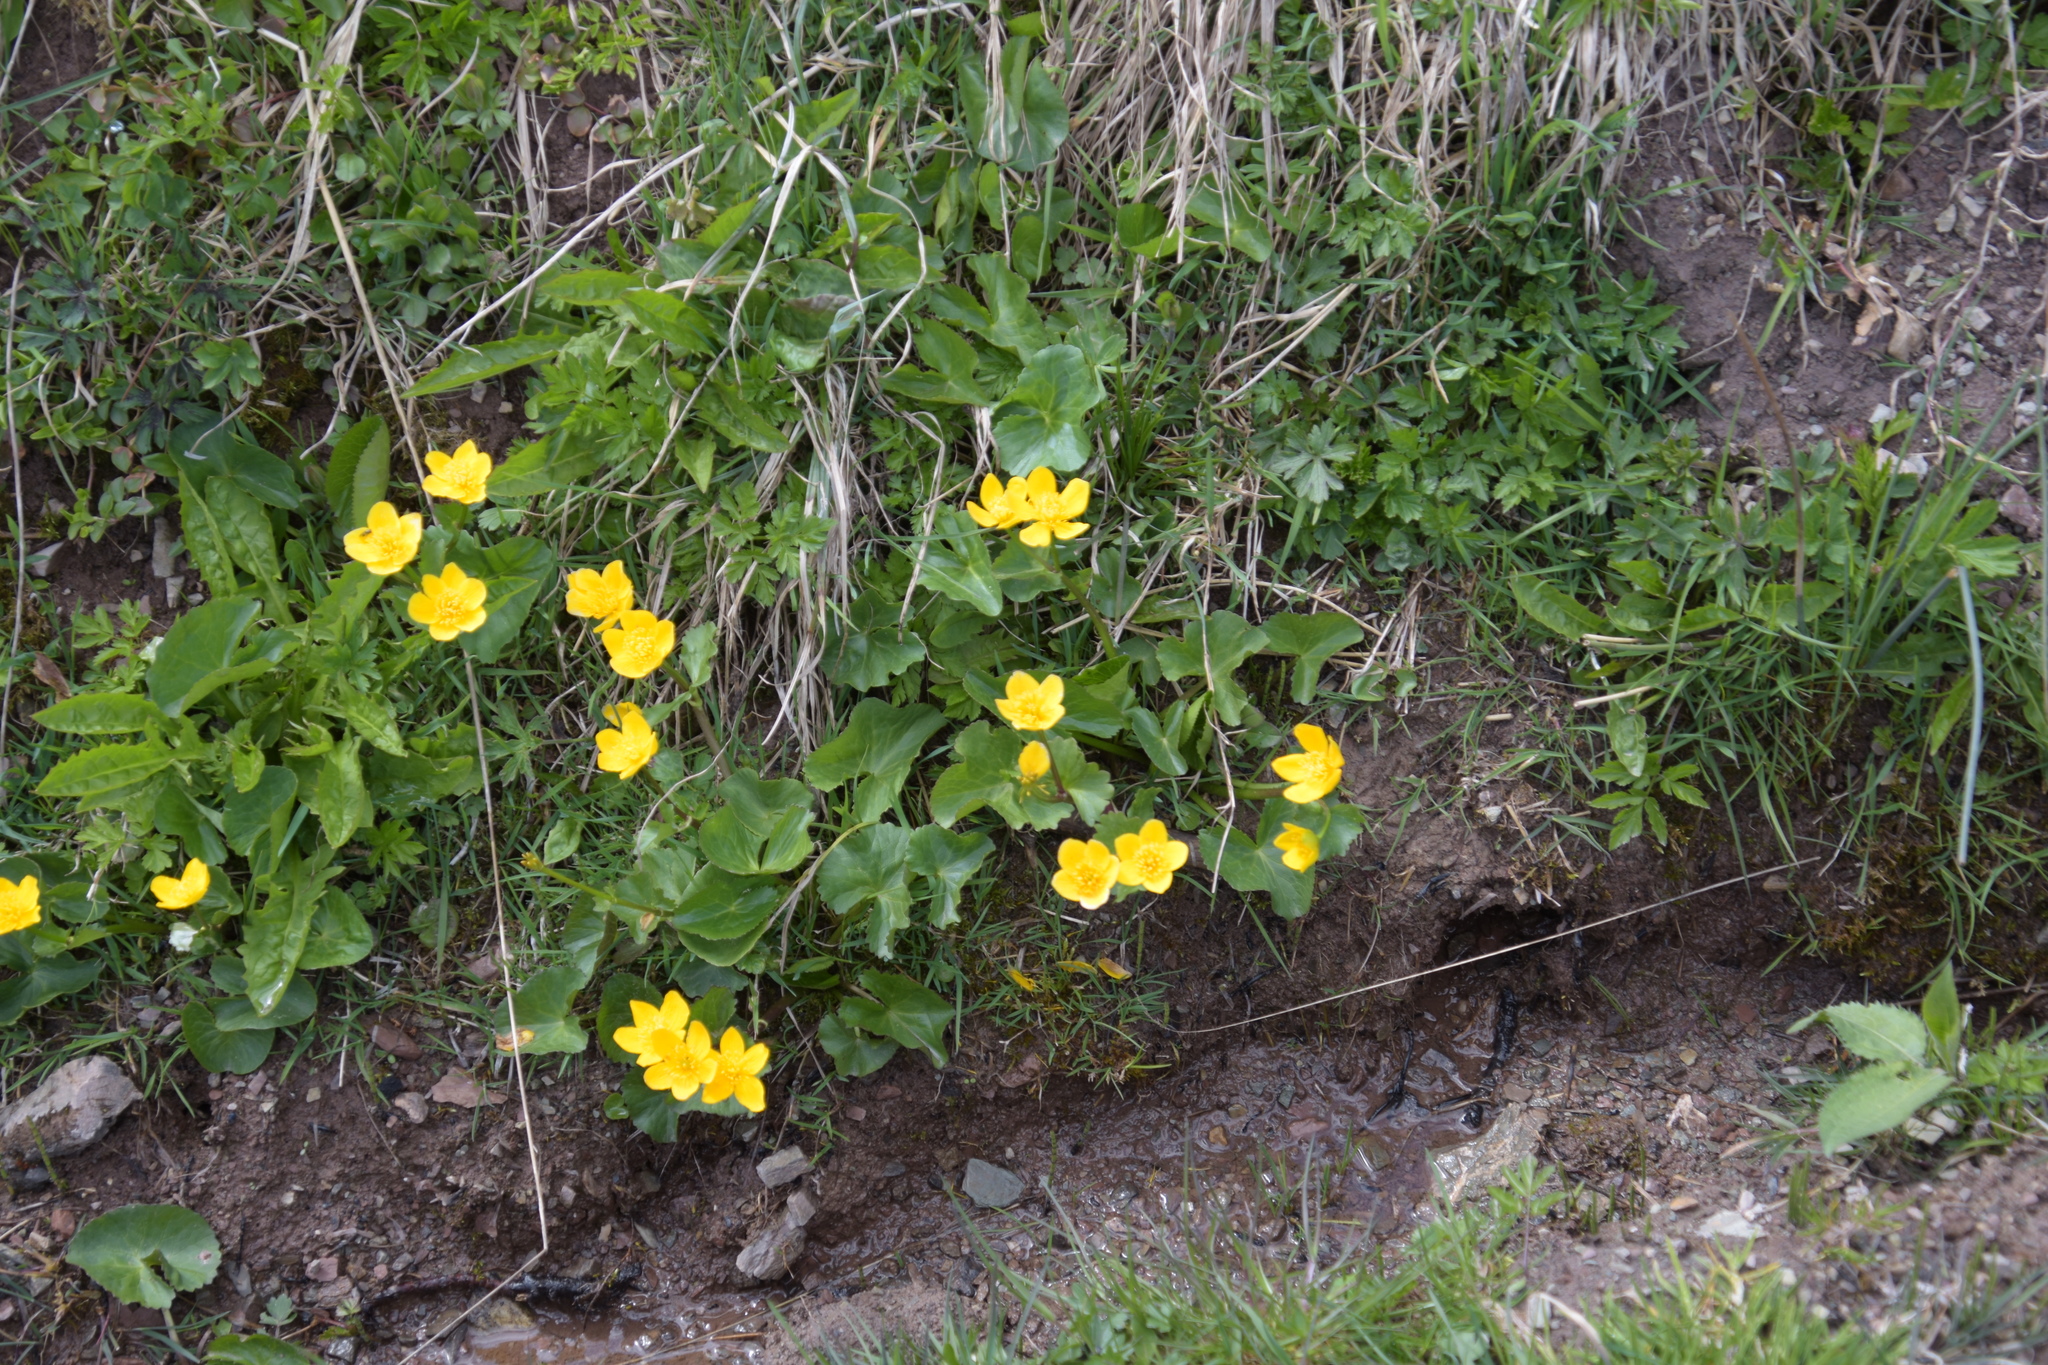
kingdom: Plantae
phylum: Tracheophyta
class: Magnoliopsida
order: Ranunculales
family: Ranunculaceae
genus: Caltha
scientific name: Caltha palustris
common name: Marsh marigold
